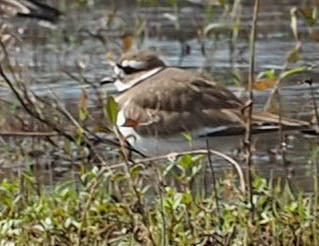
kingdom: Animalia
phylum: Chordata
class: Aves
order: Charadriiformes
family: Charadriidae
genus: Charadrius
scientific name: Charadrius vociferus
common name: Killdeer
